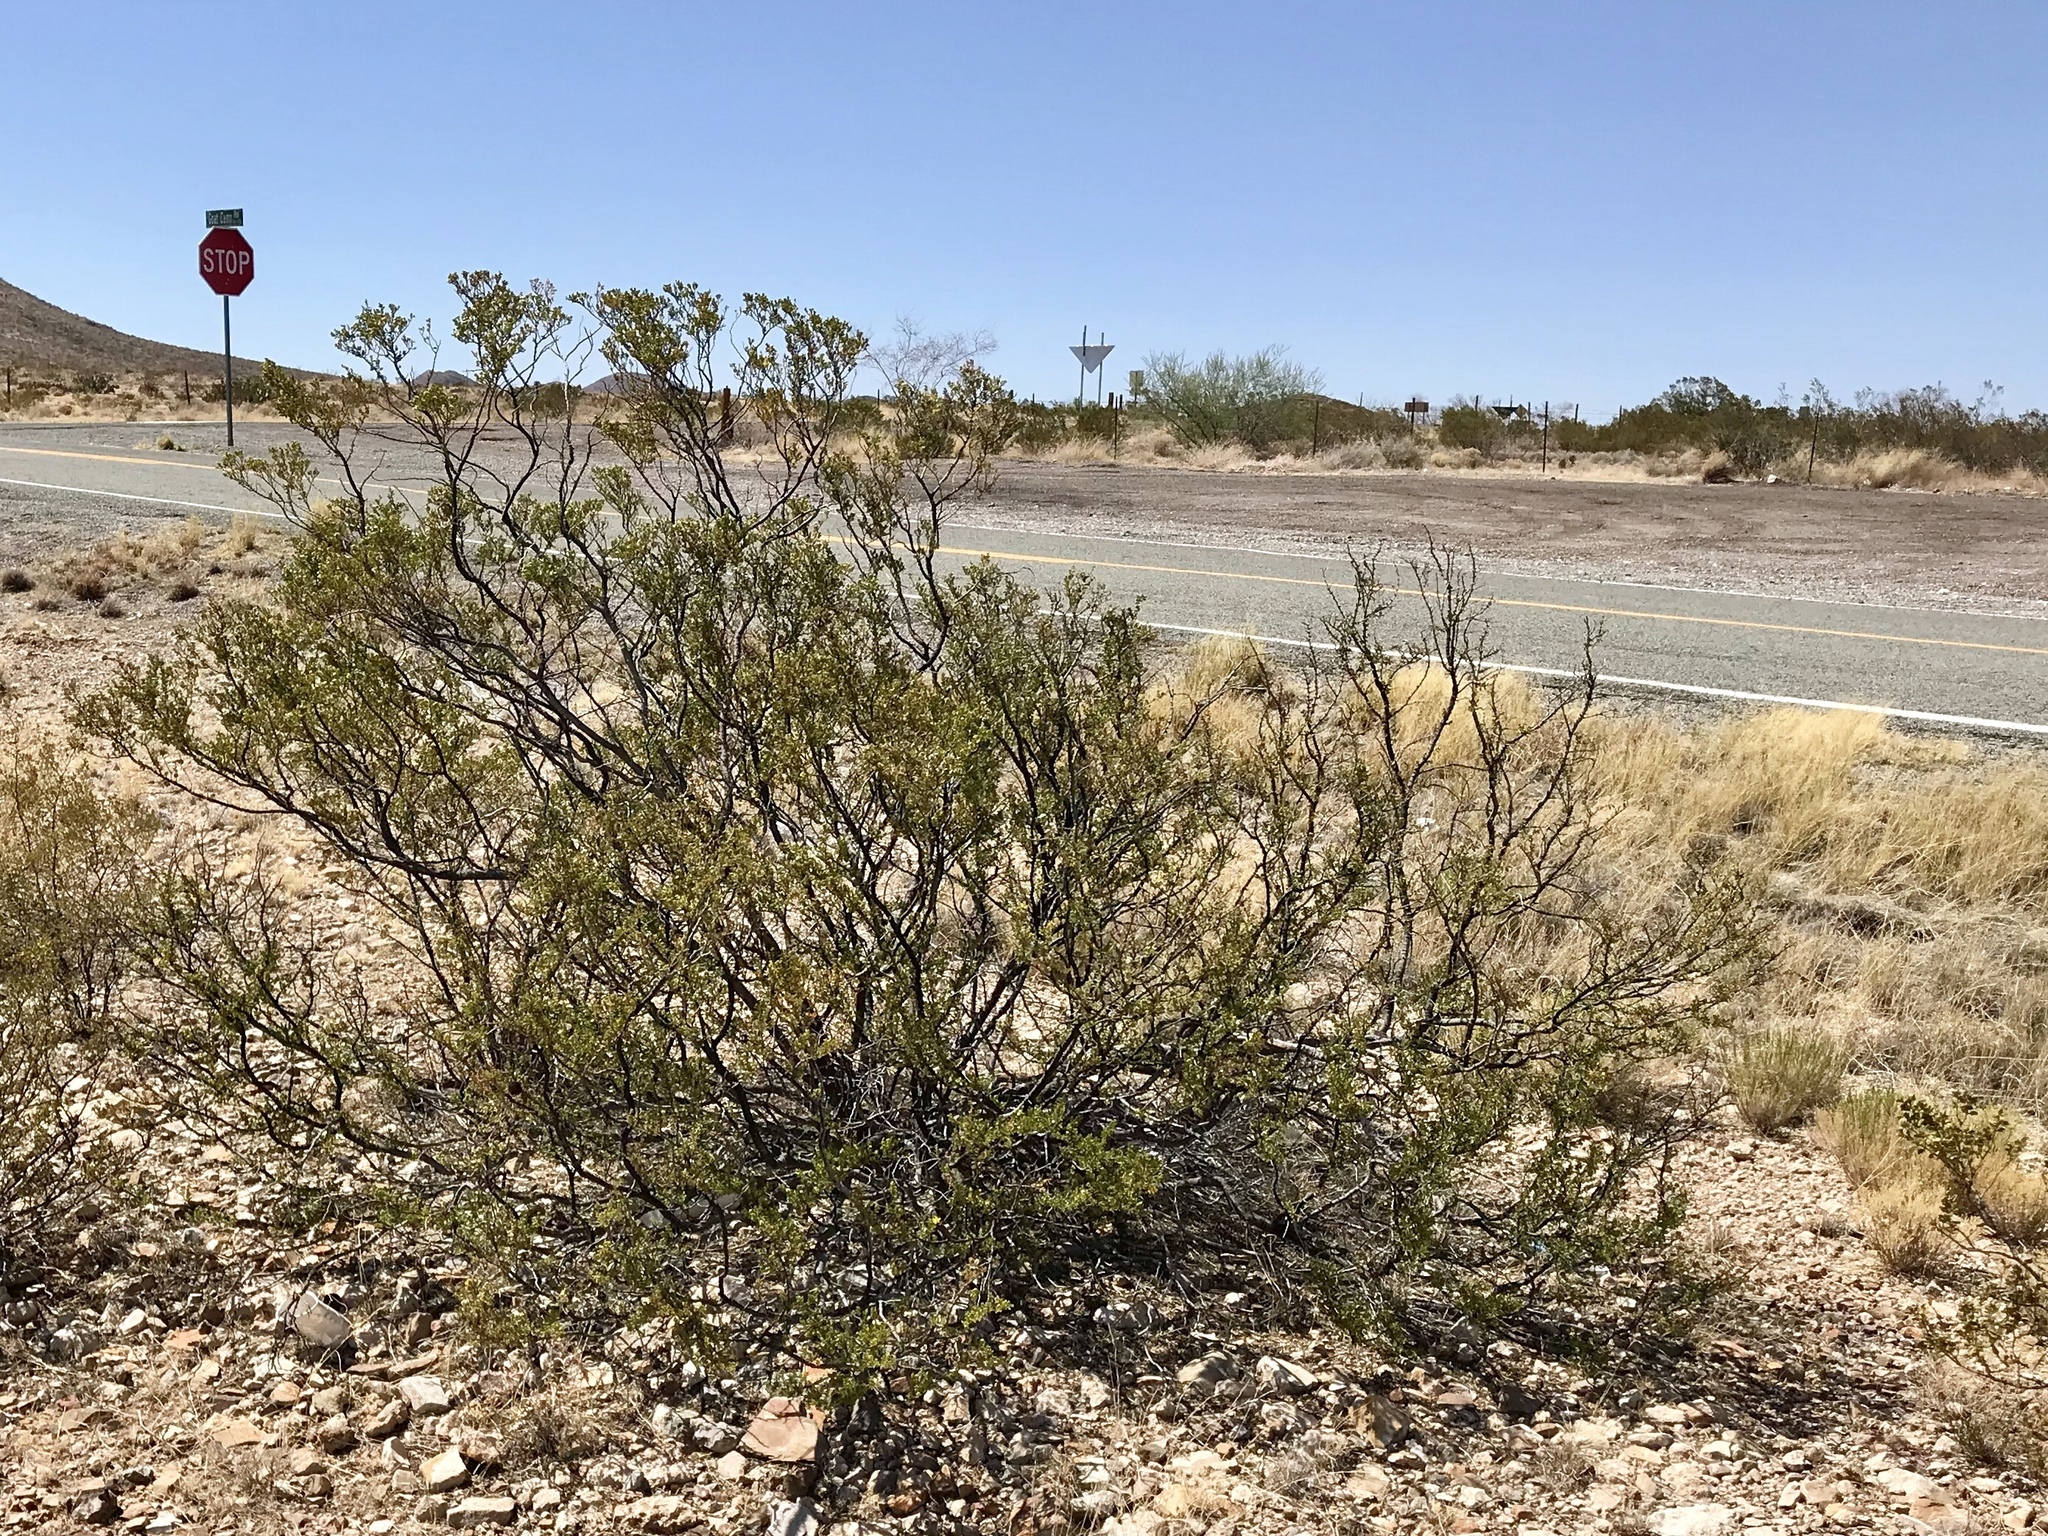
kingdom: Plantae
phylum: Tracheophyta
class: Magnoliopsida
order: Zygophyllales
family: Zygophyllaceae
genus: Larrea
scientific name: Larrea tridentata
